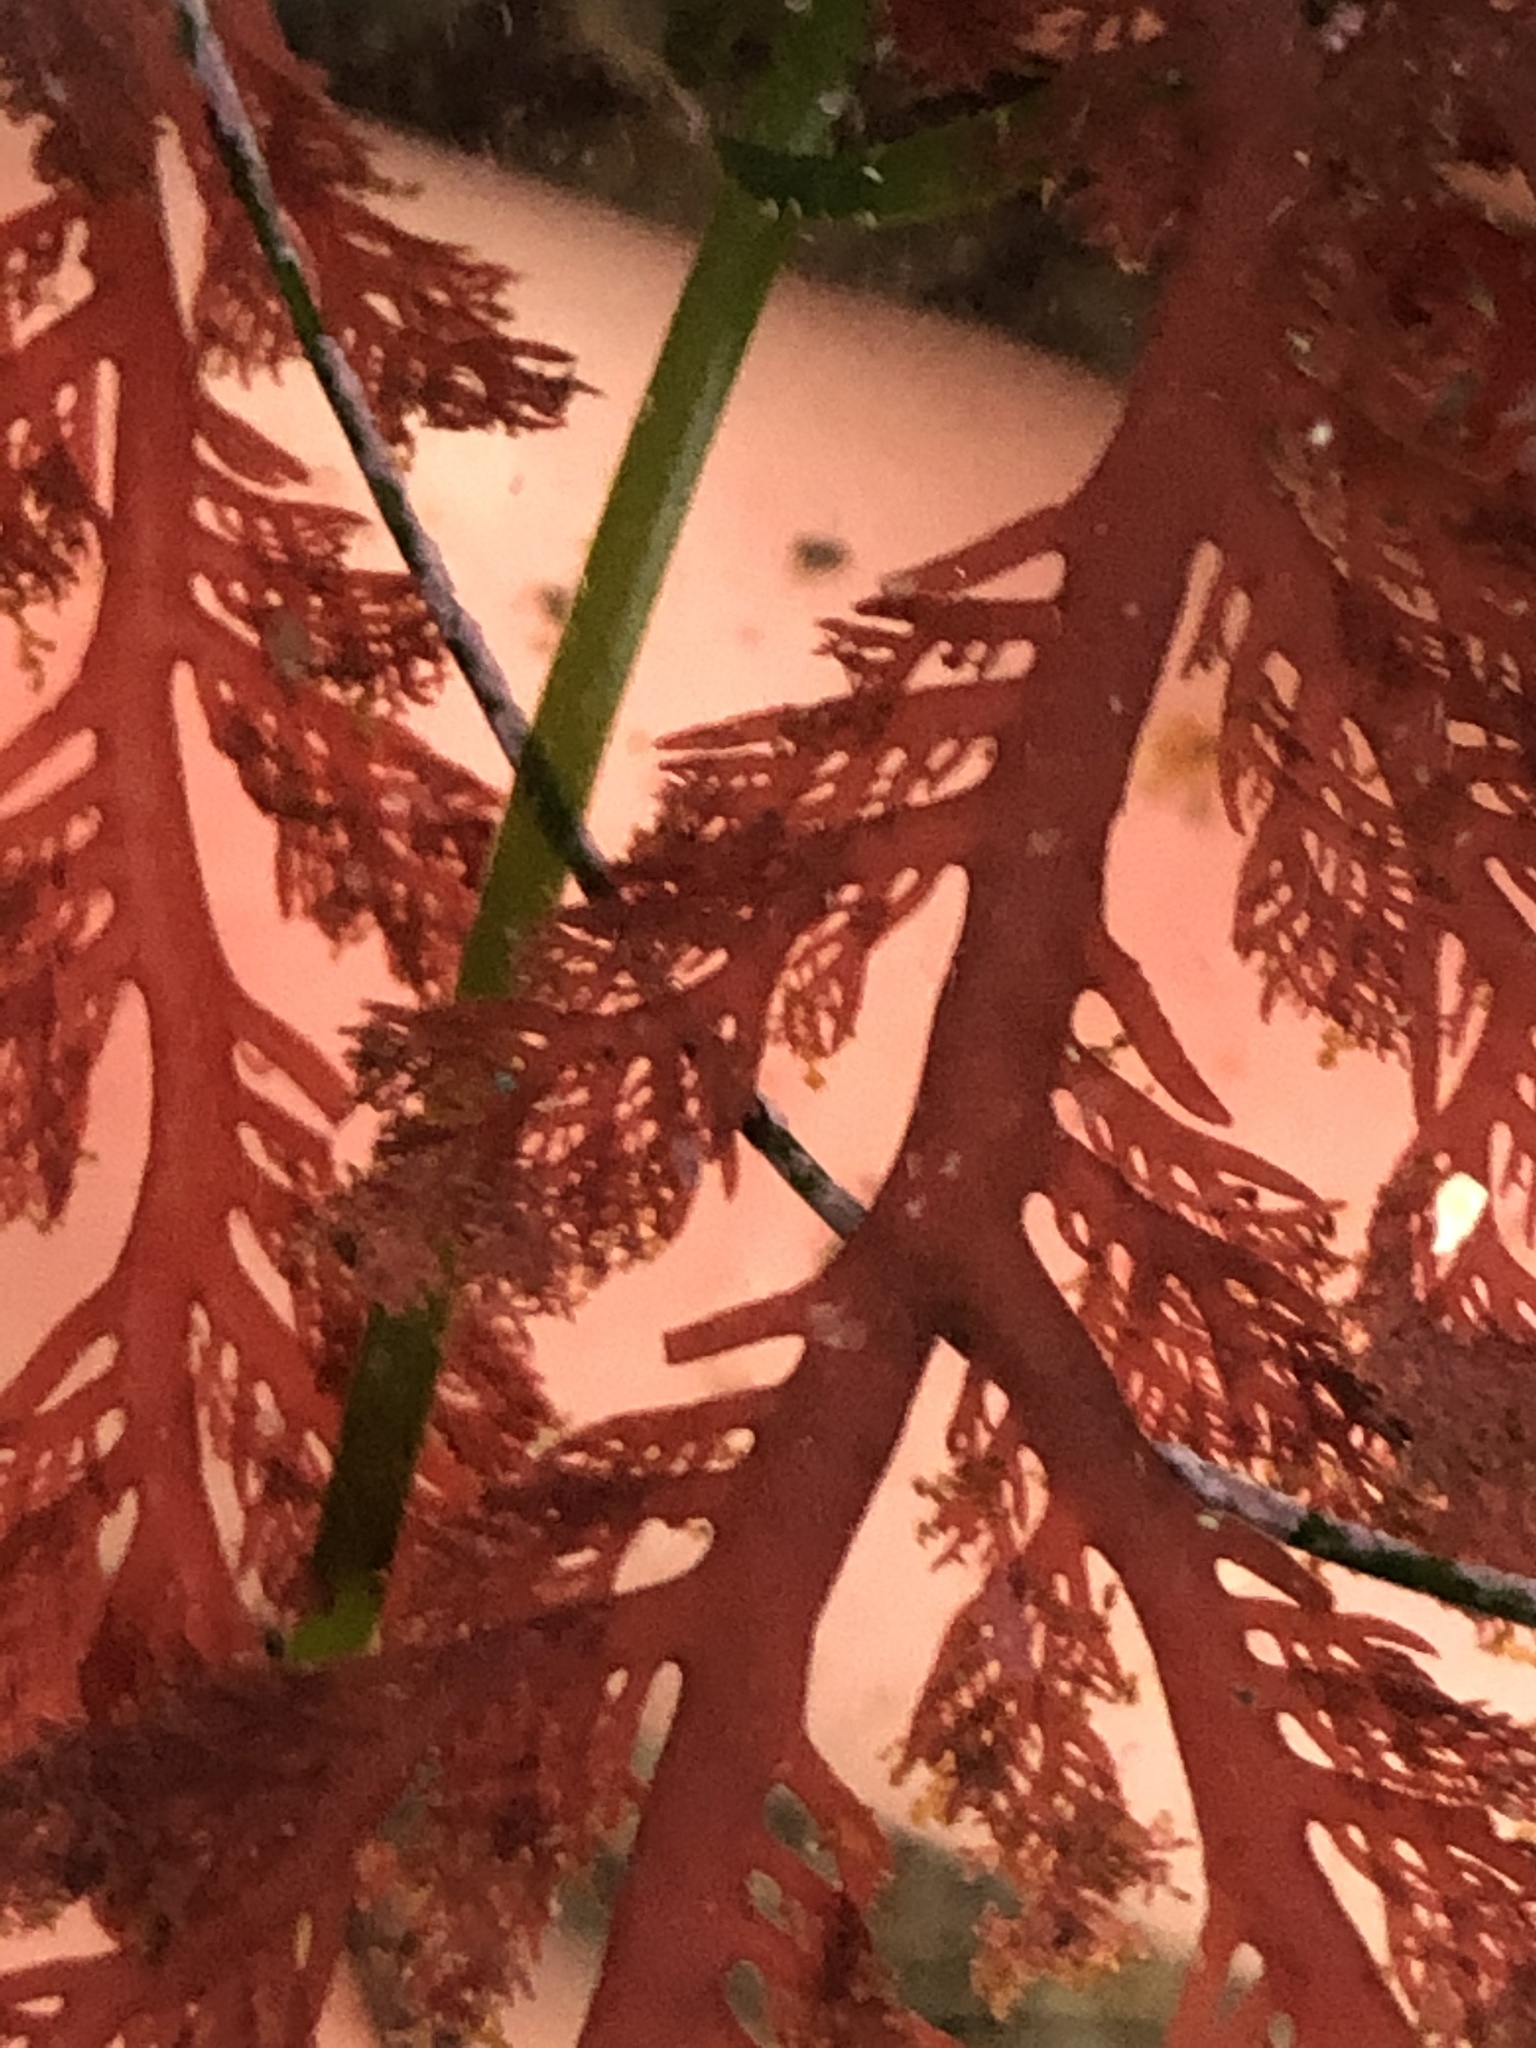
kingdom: Plantae
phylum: Rhodophyta
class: Florideophyceae
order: Plocamiales
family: Plocamiaceae
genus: Plocamium
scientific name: Plocamium cartilagineum
